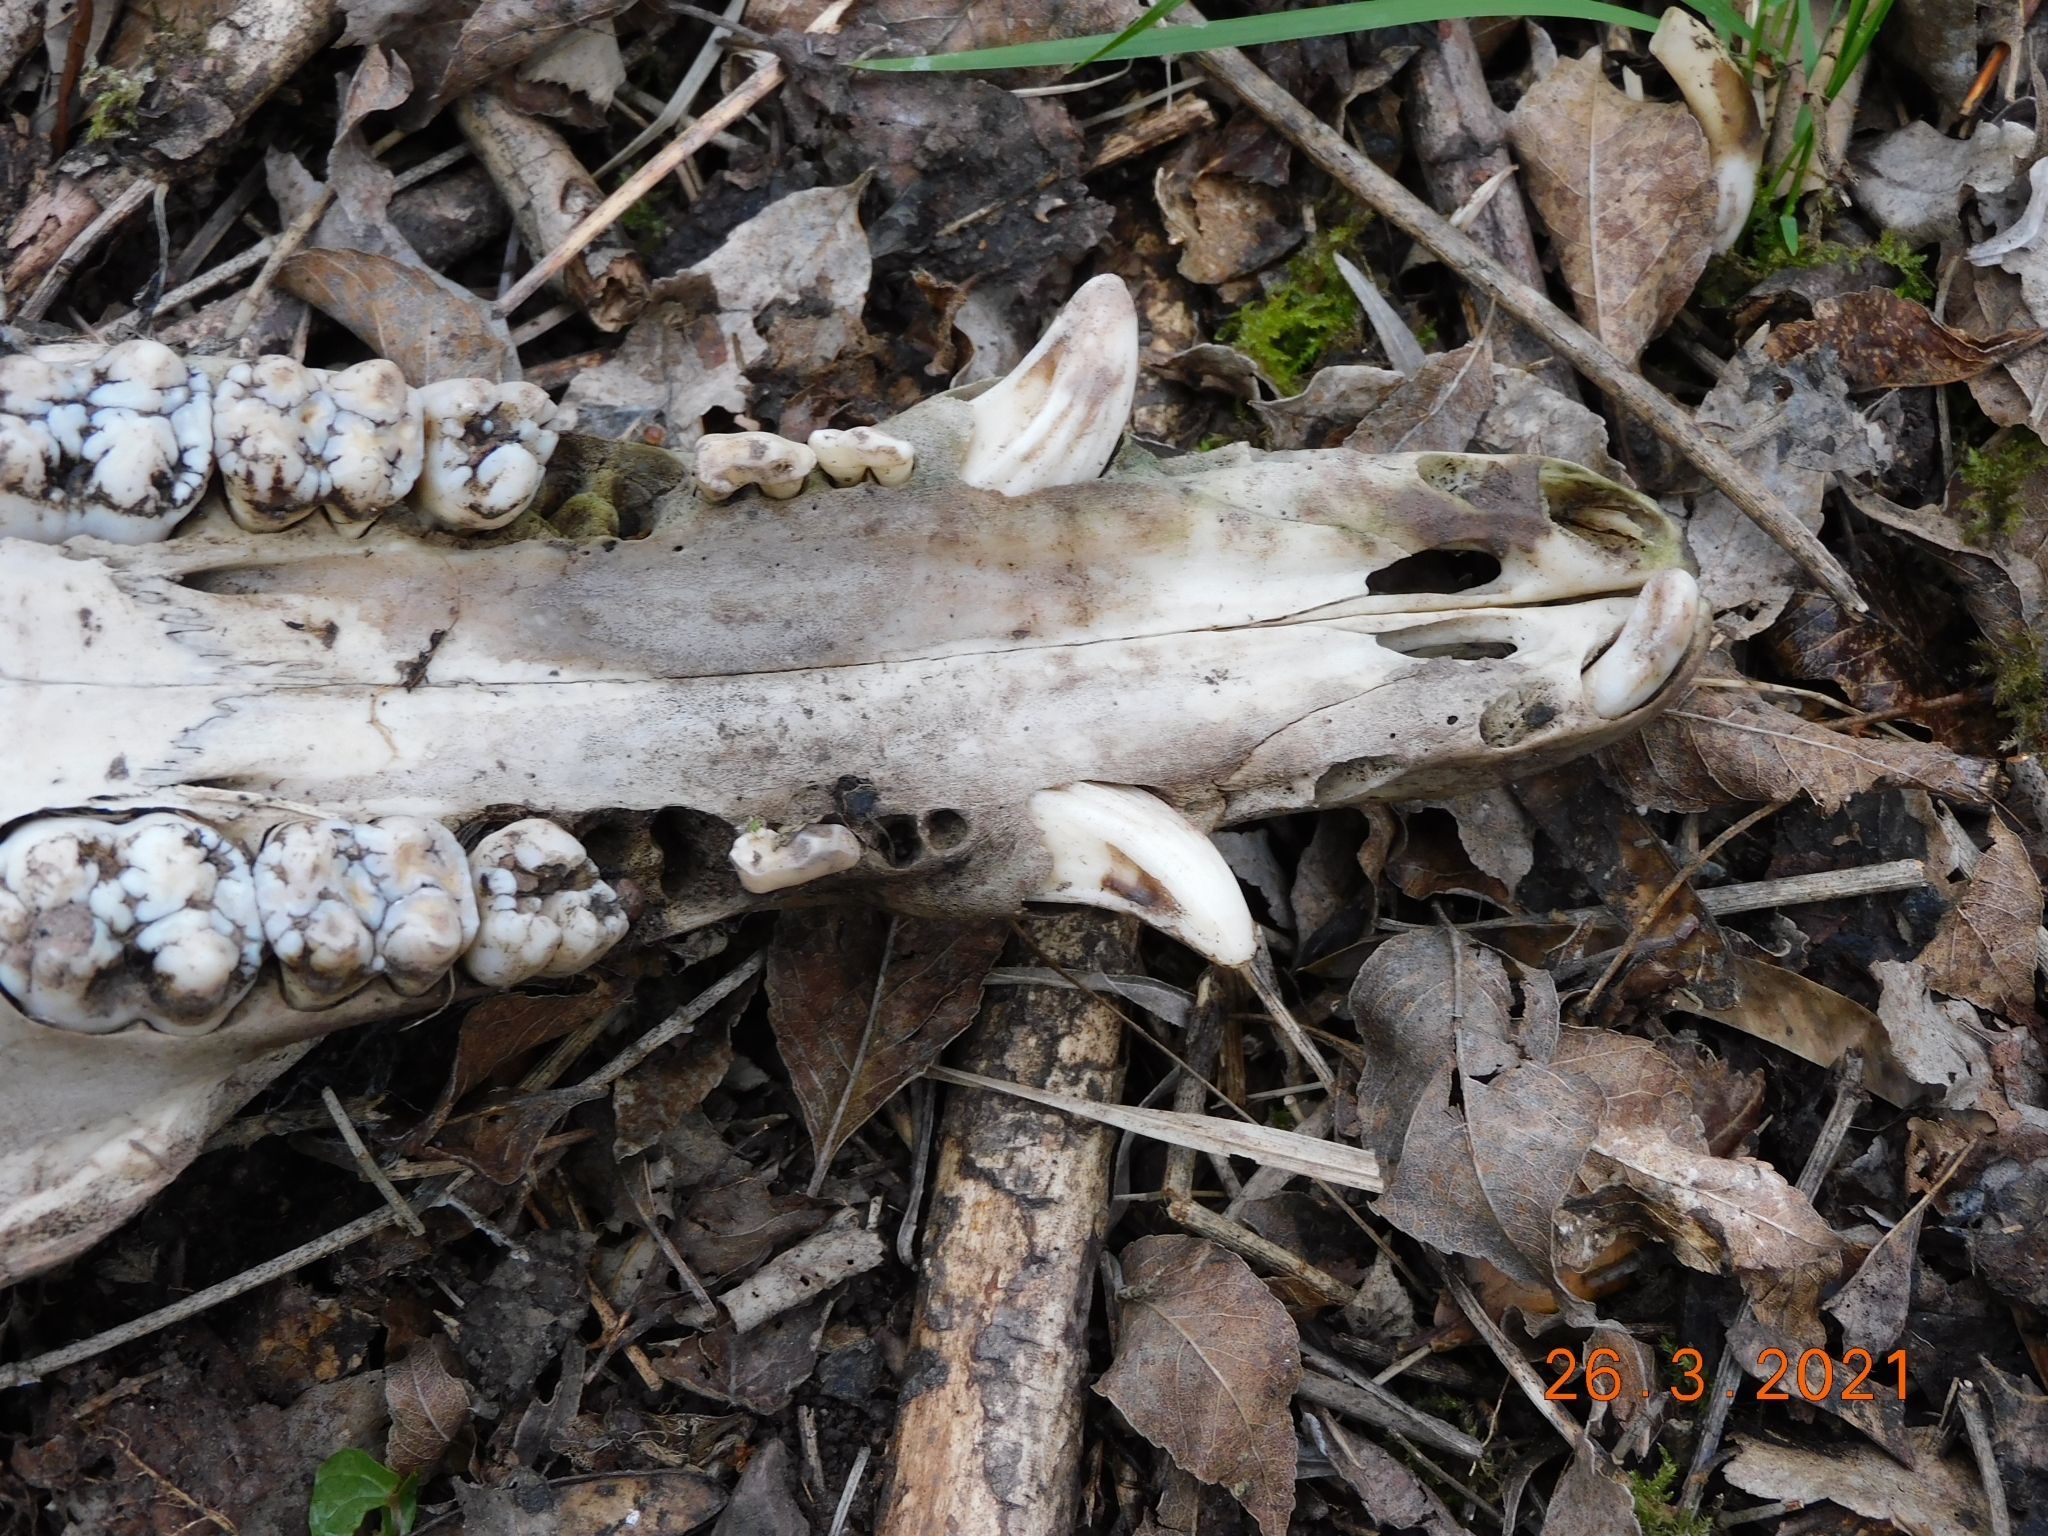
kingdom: Animalia
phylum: Chordata
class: Mammalia
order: Artiodactyla
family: Suidae
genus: Sus
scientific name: Sus scrofa
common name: Wild boar
